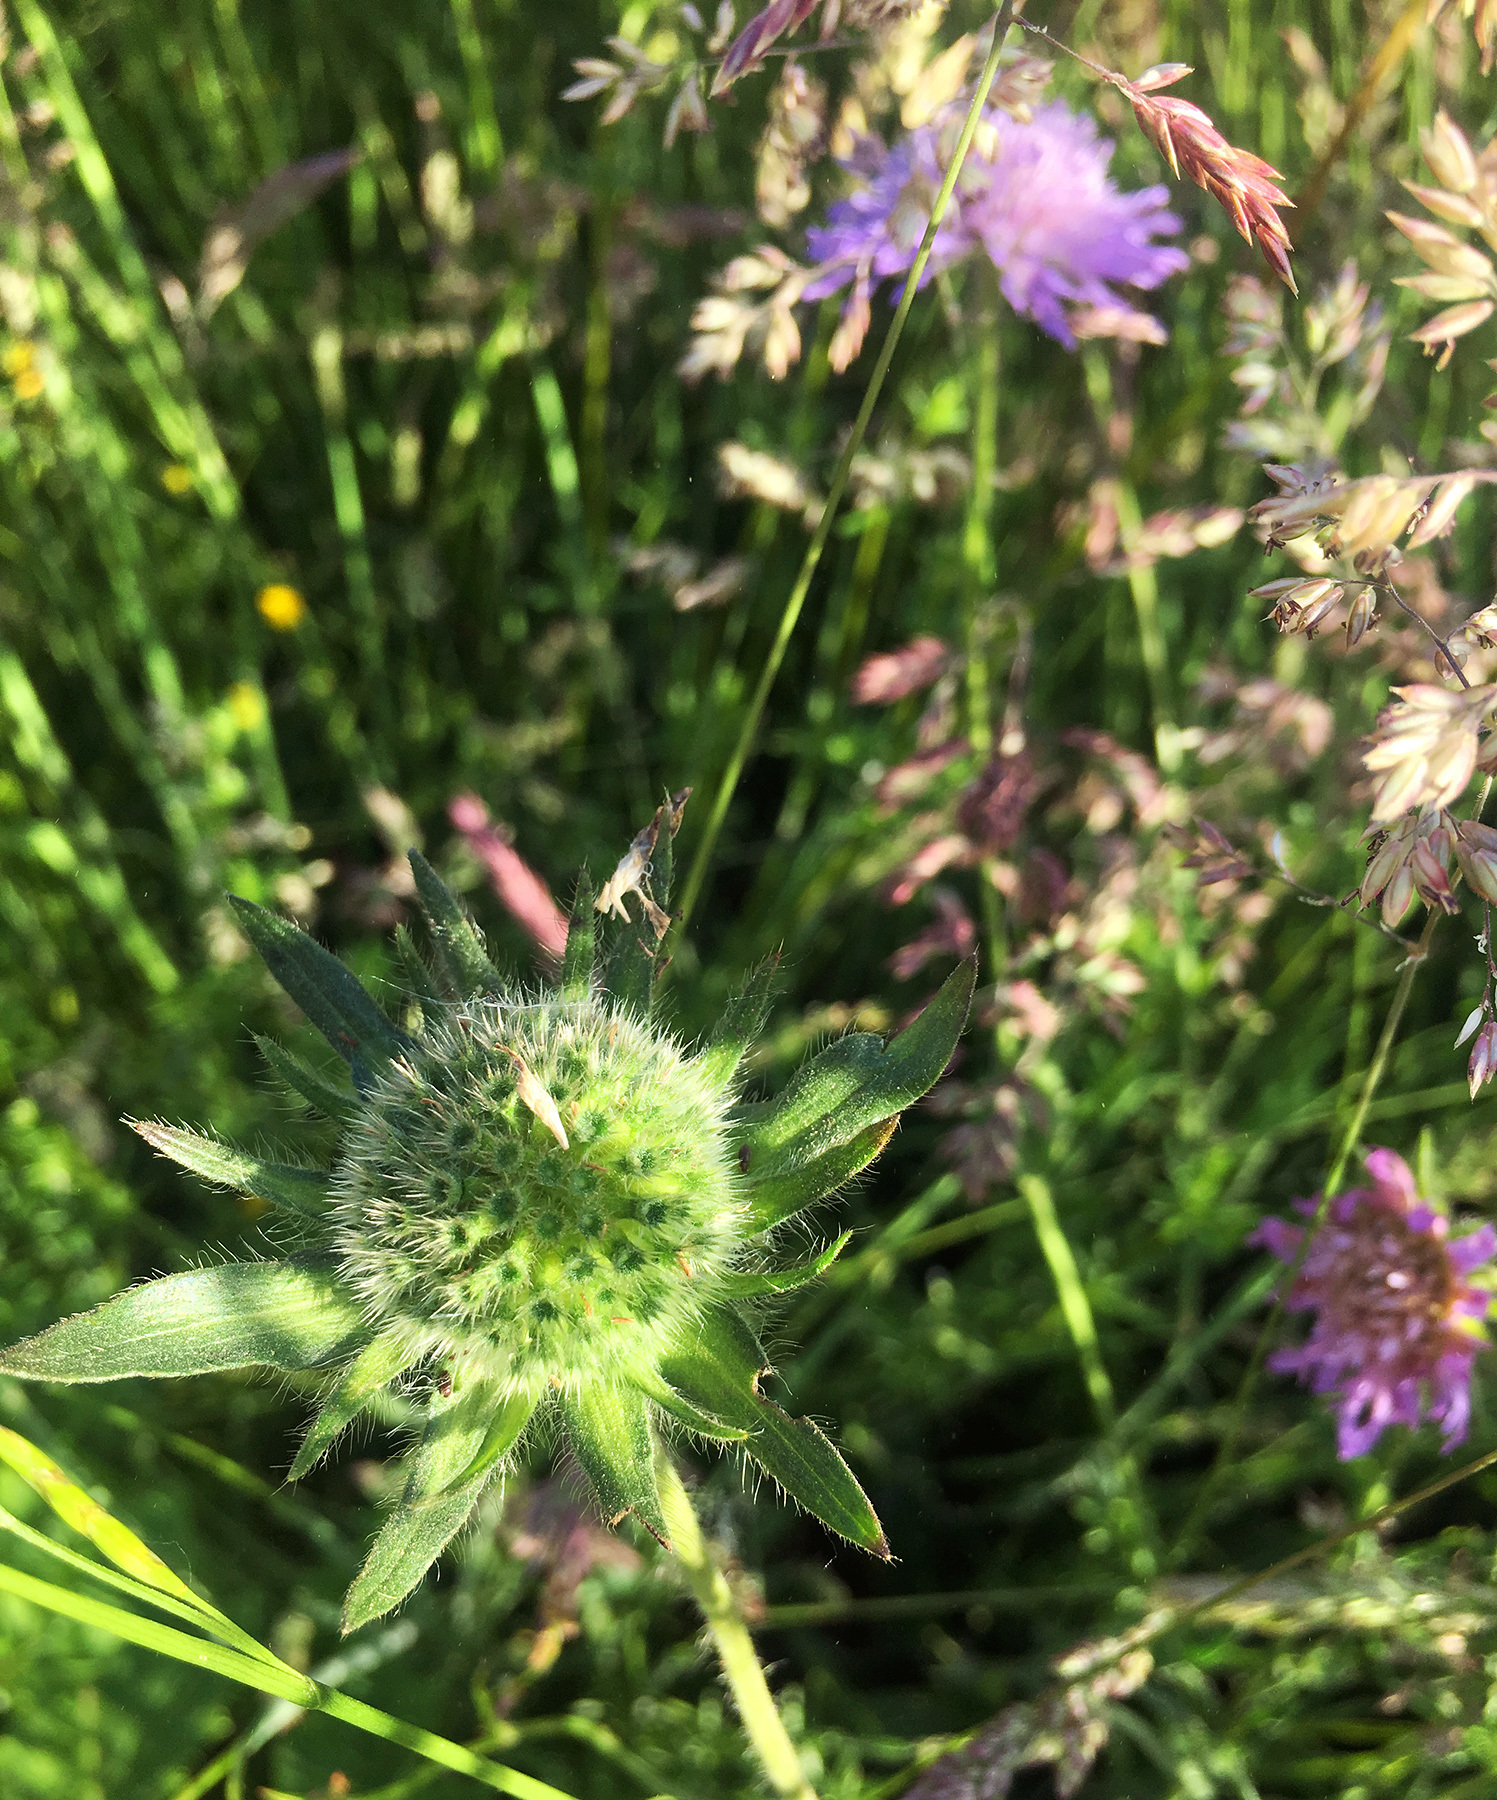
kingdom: Plantae
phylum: Tracheophyta
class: Magnoliopsida
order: Dipsacales
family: Caprifoliaceae
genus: Knautia
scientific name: Knautia arvensis
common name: Field scabiosa
